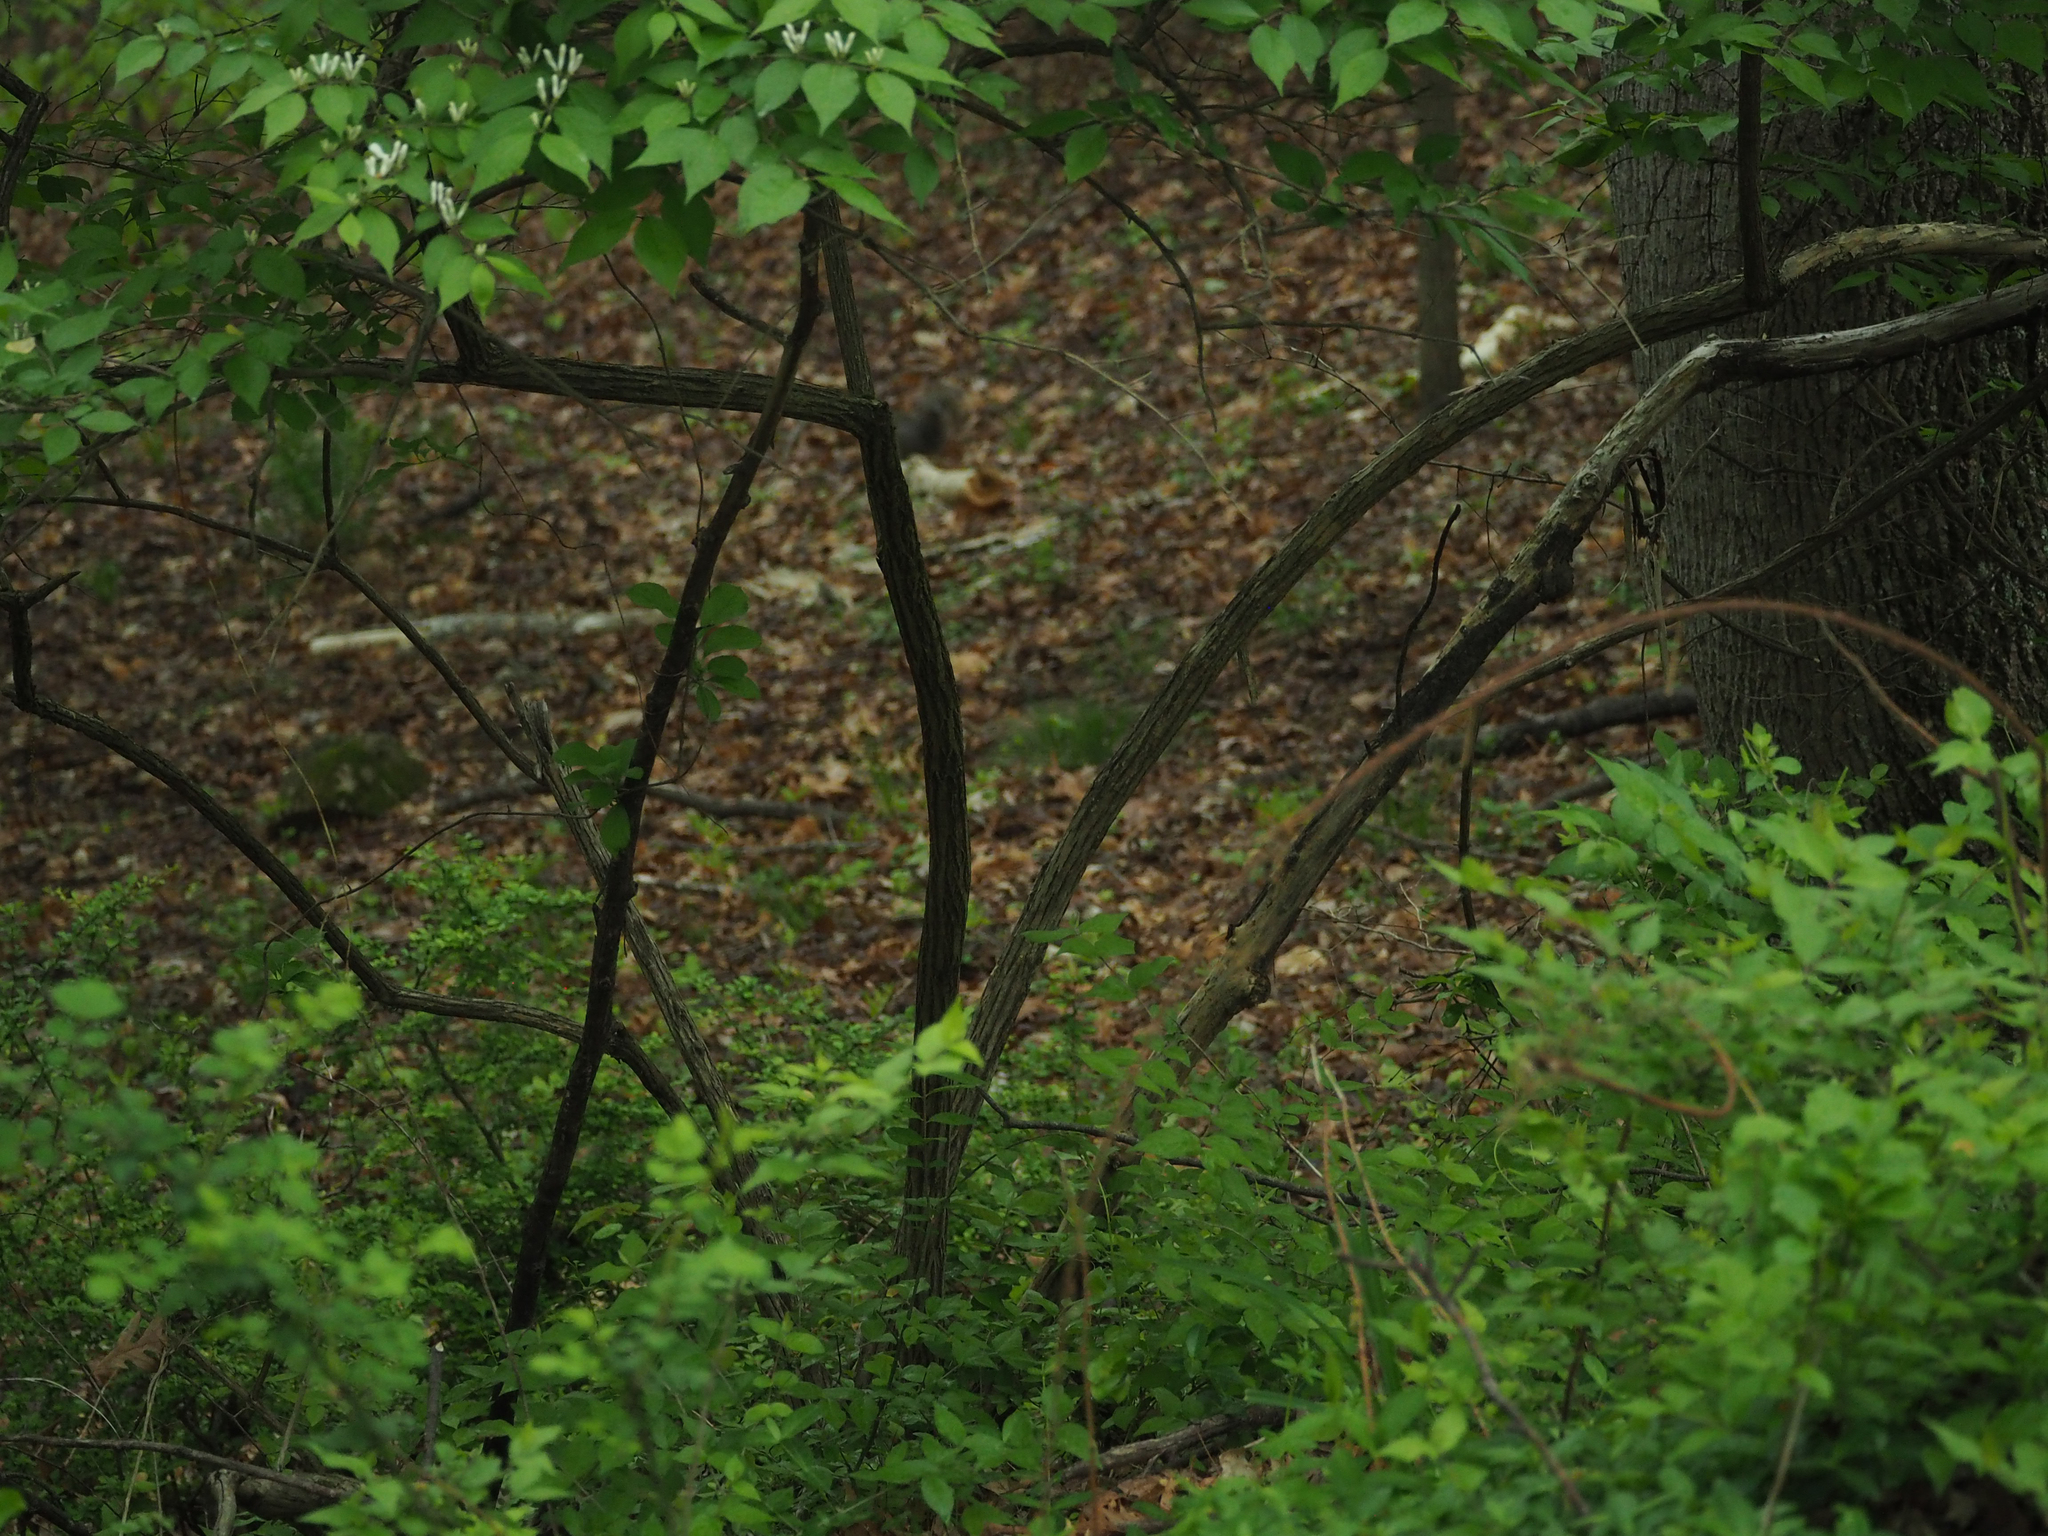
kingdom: Plantae
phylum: Tracheophyta
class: Magnoliopsida
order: Dipsacales
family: Caprifoliaceae
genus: Lonicera
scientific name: Lonicera maackii
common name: Amur honeysuckle
